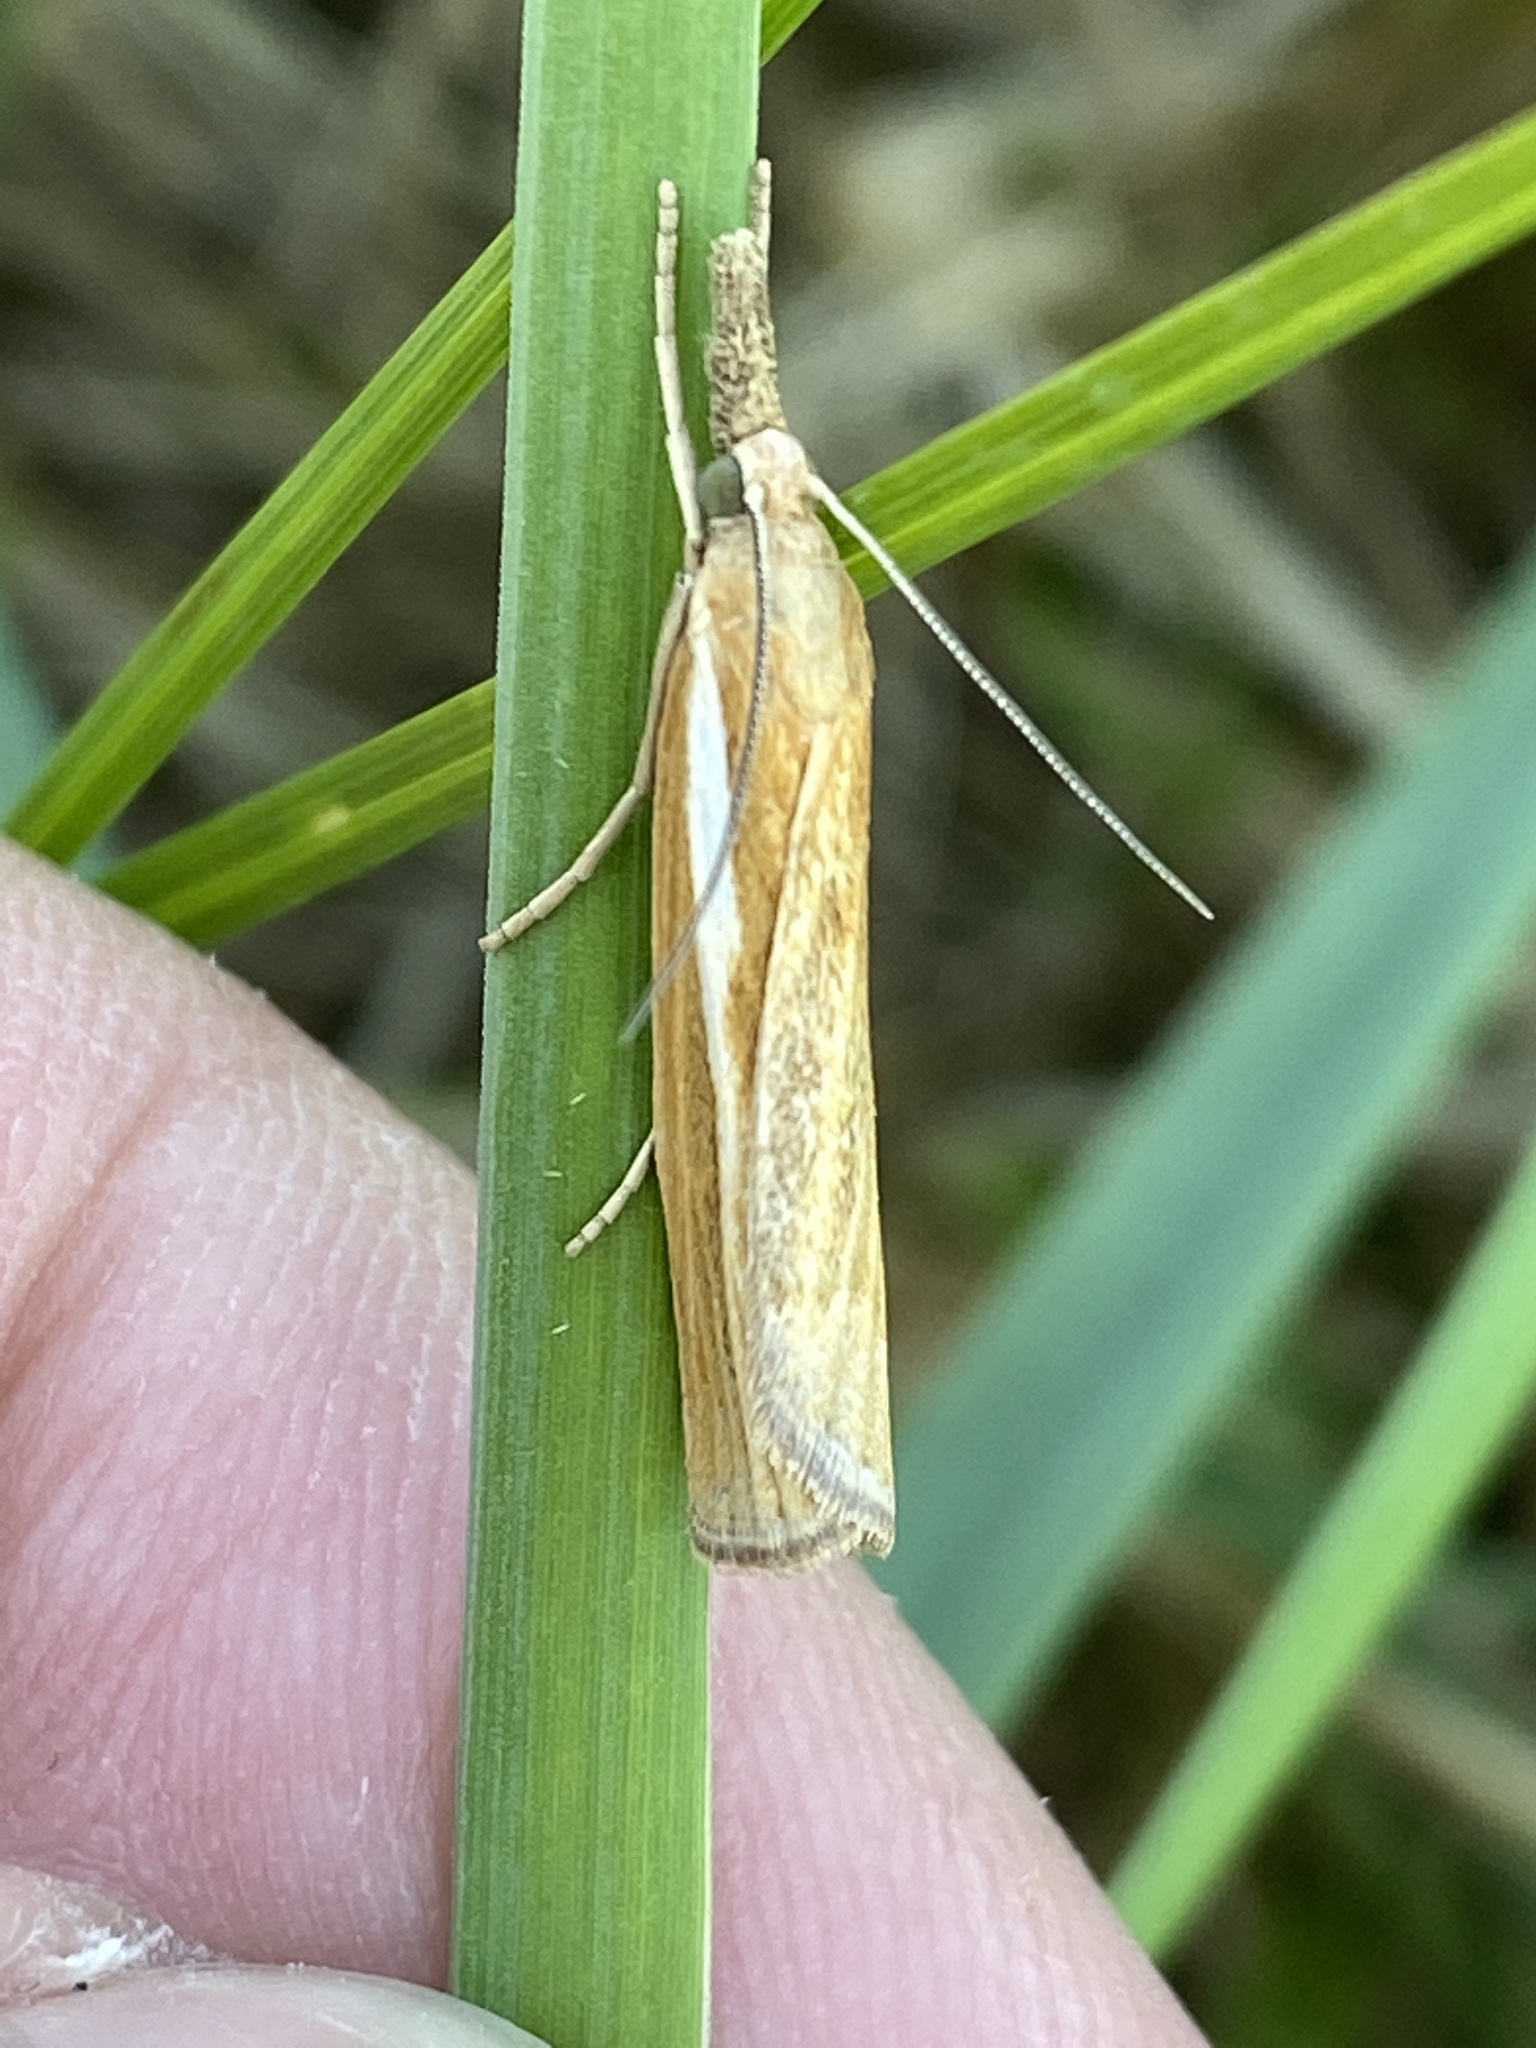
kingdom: Animalia
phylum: Arthropoda
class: Insecta
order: Lepidoptera
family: Crambidae
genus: Agriphila
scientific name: Agriphila tristellus
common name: Common grass-veneer
